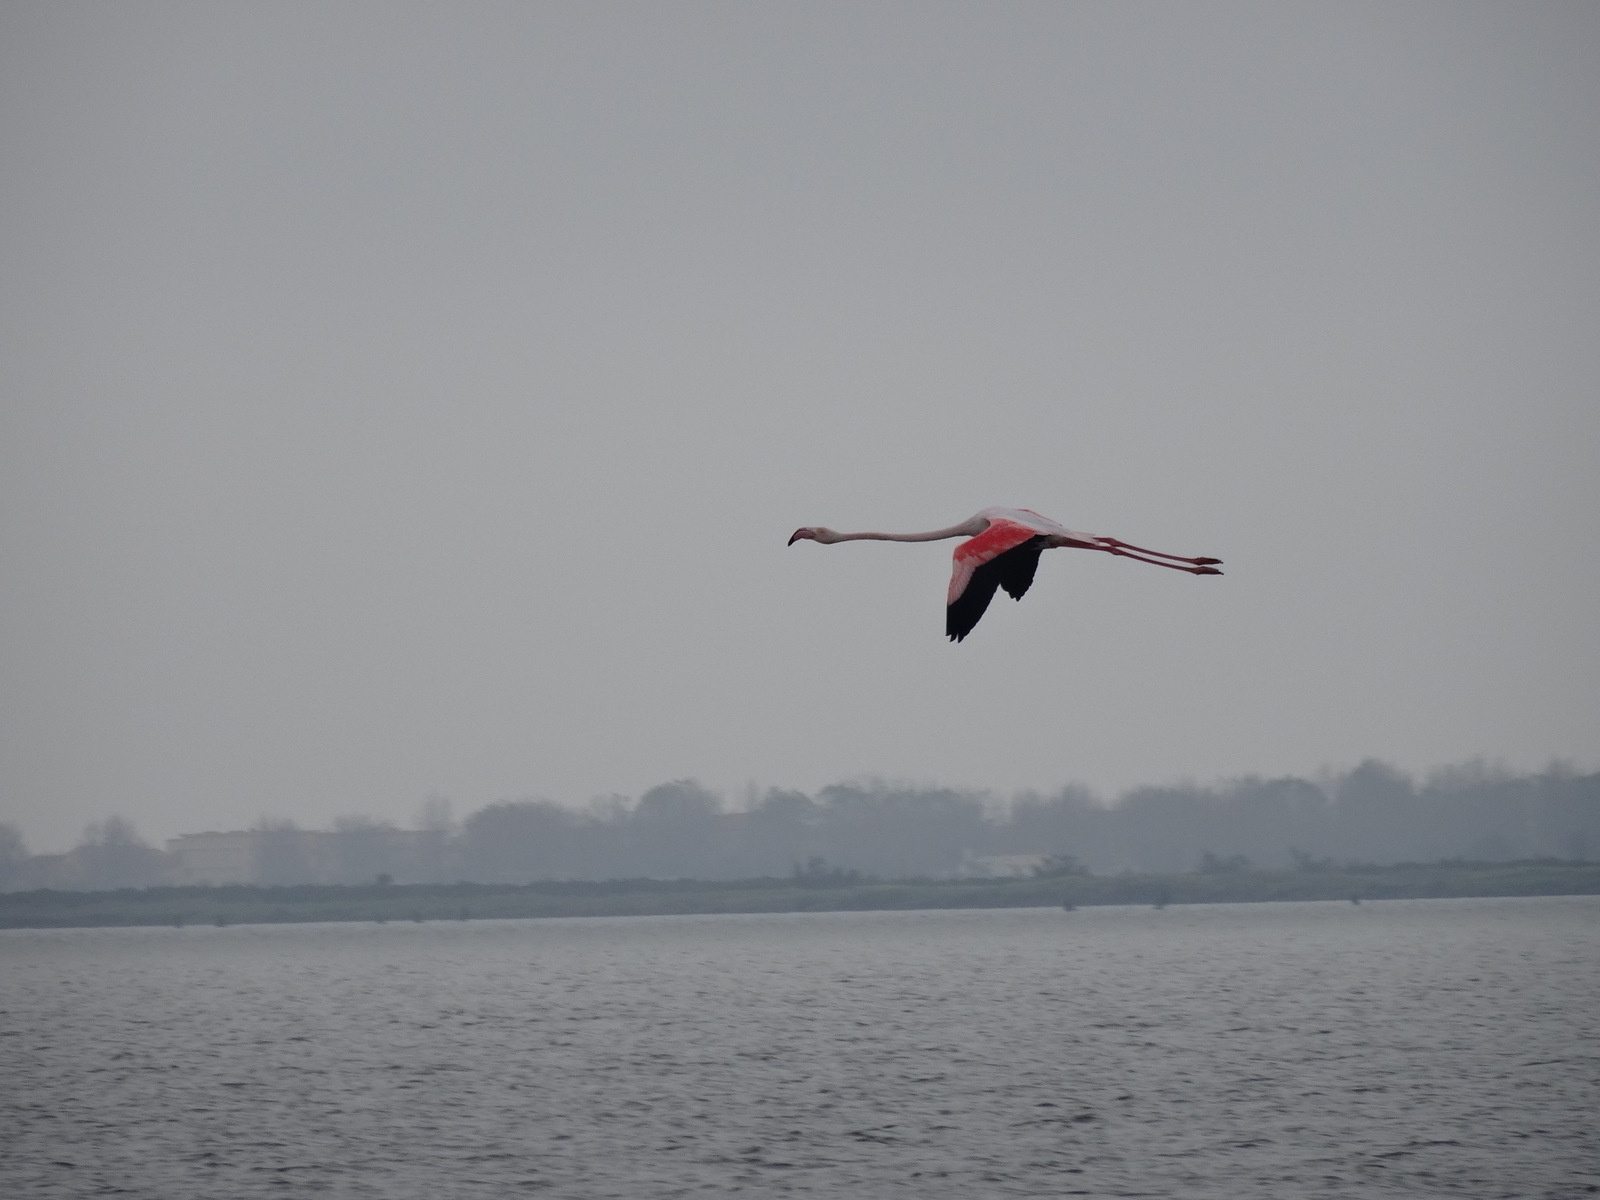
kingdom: Animalia
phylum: Chordata
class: Aves
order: Phoenicopteriformes
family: Phoenicopteridae
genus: Phoenicopterus
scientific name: Phoenicopterus roseus
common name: Greater flamingo
